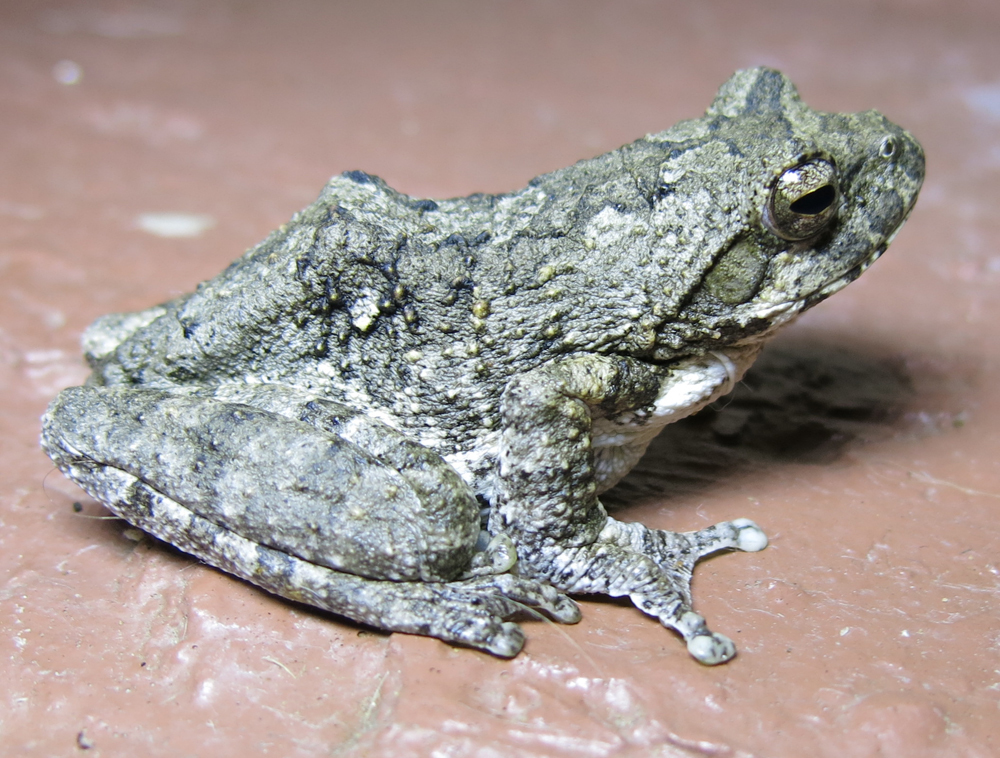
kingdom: Animalia
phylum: Chordata
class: Amphibia
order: Anura
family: Rhacophoridae
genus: Chiromantis
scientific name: Chiromantis xerampelina
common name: African gray treefrog
